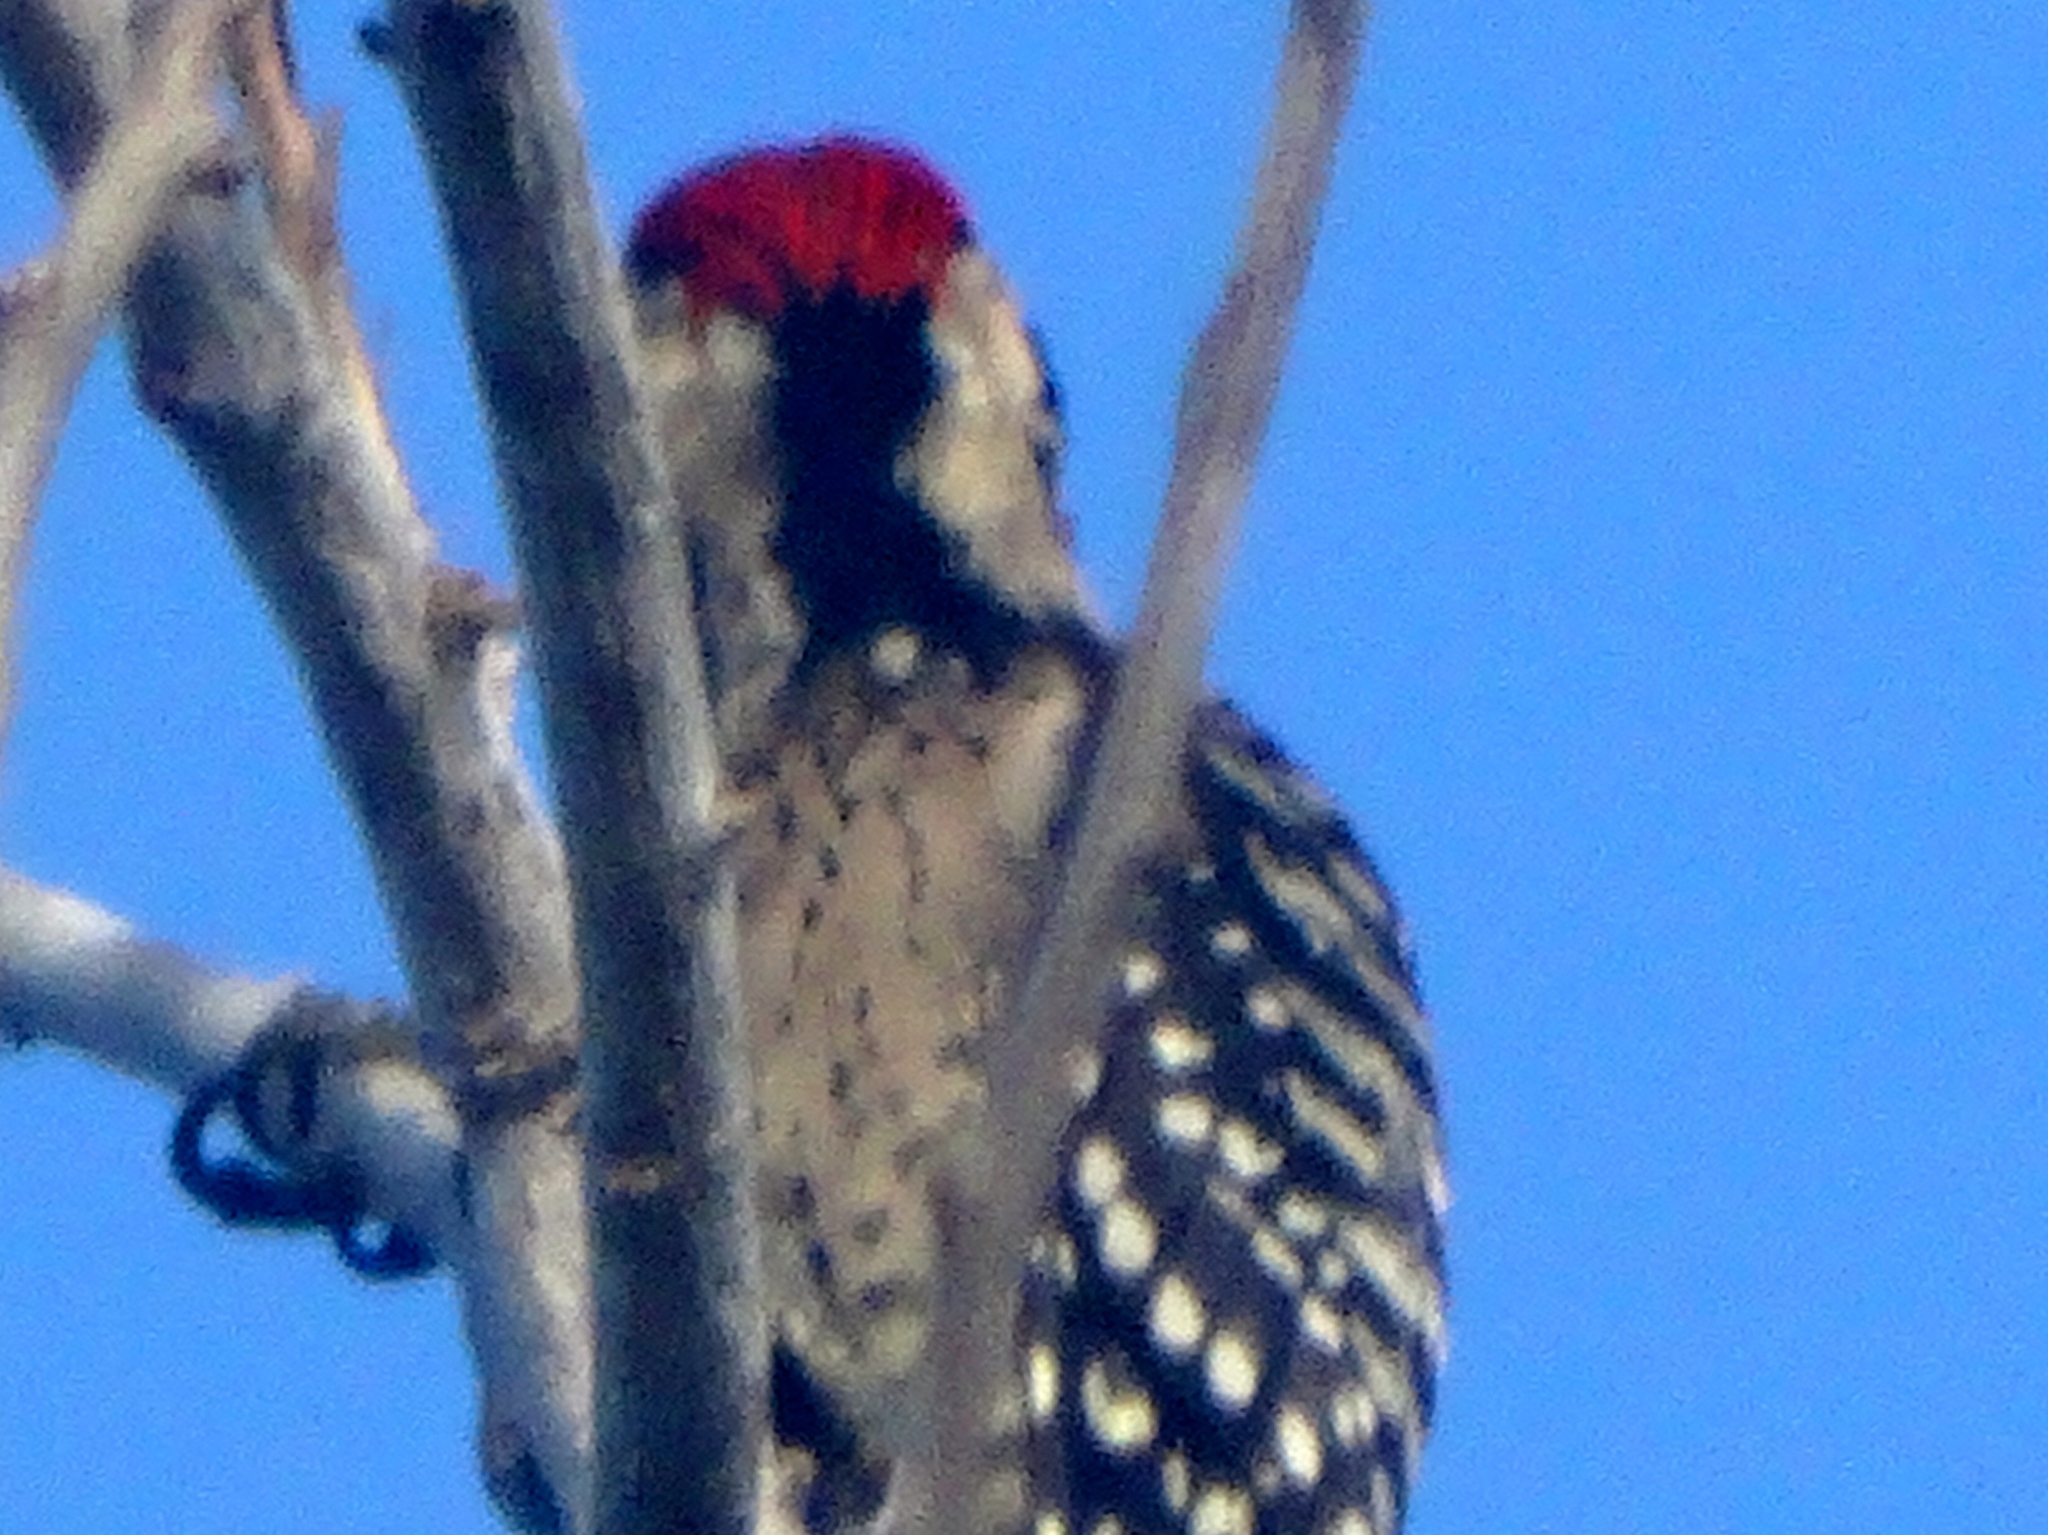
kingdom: Animalia
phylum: Chordata
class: Aves
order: Piciformes
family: Picidae
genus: Dryobates
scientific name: Dryobates scalaris
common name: Ladder-backed woodpecker
